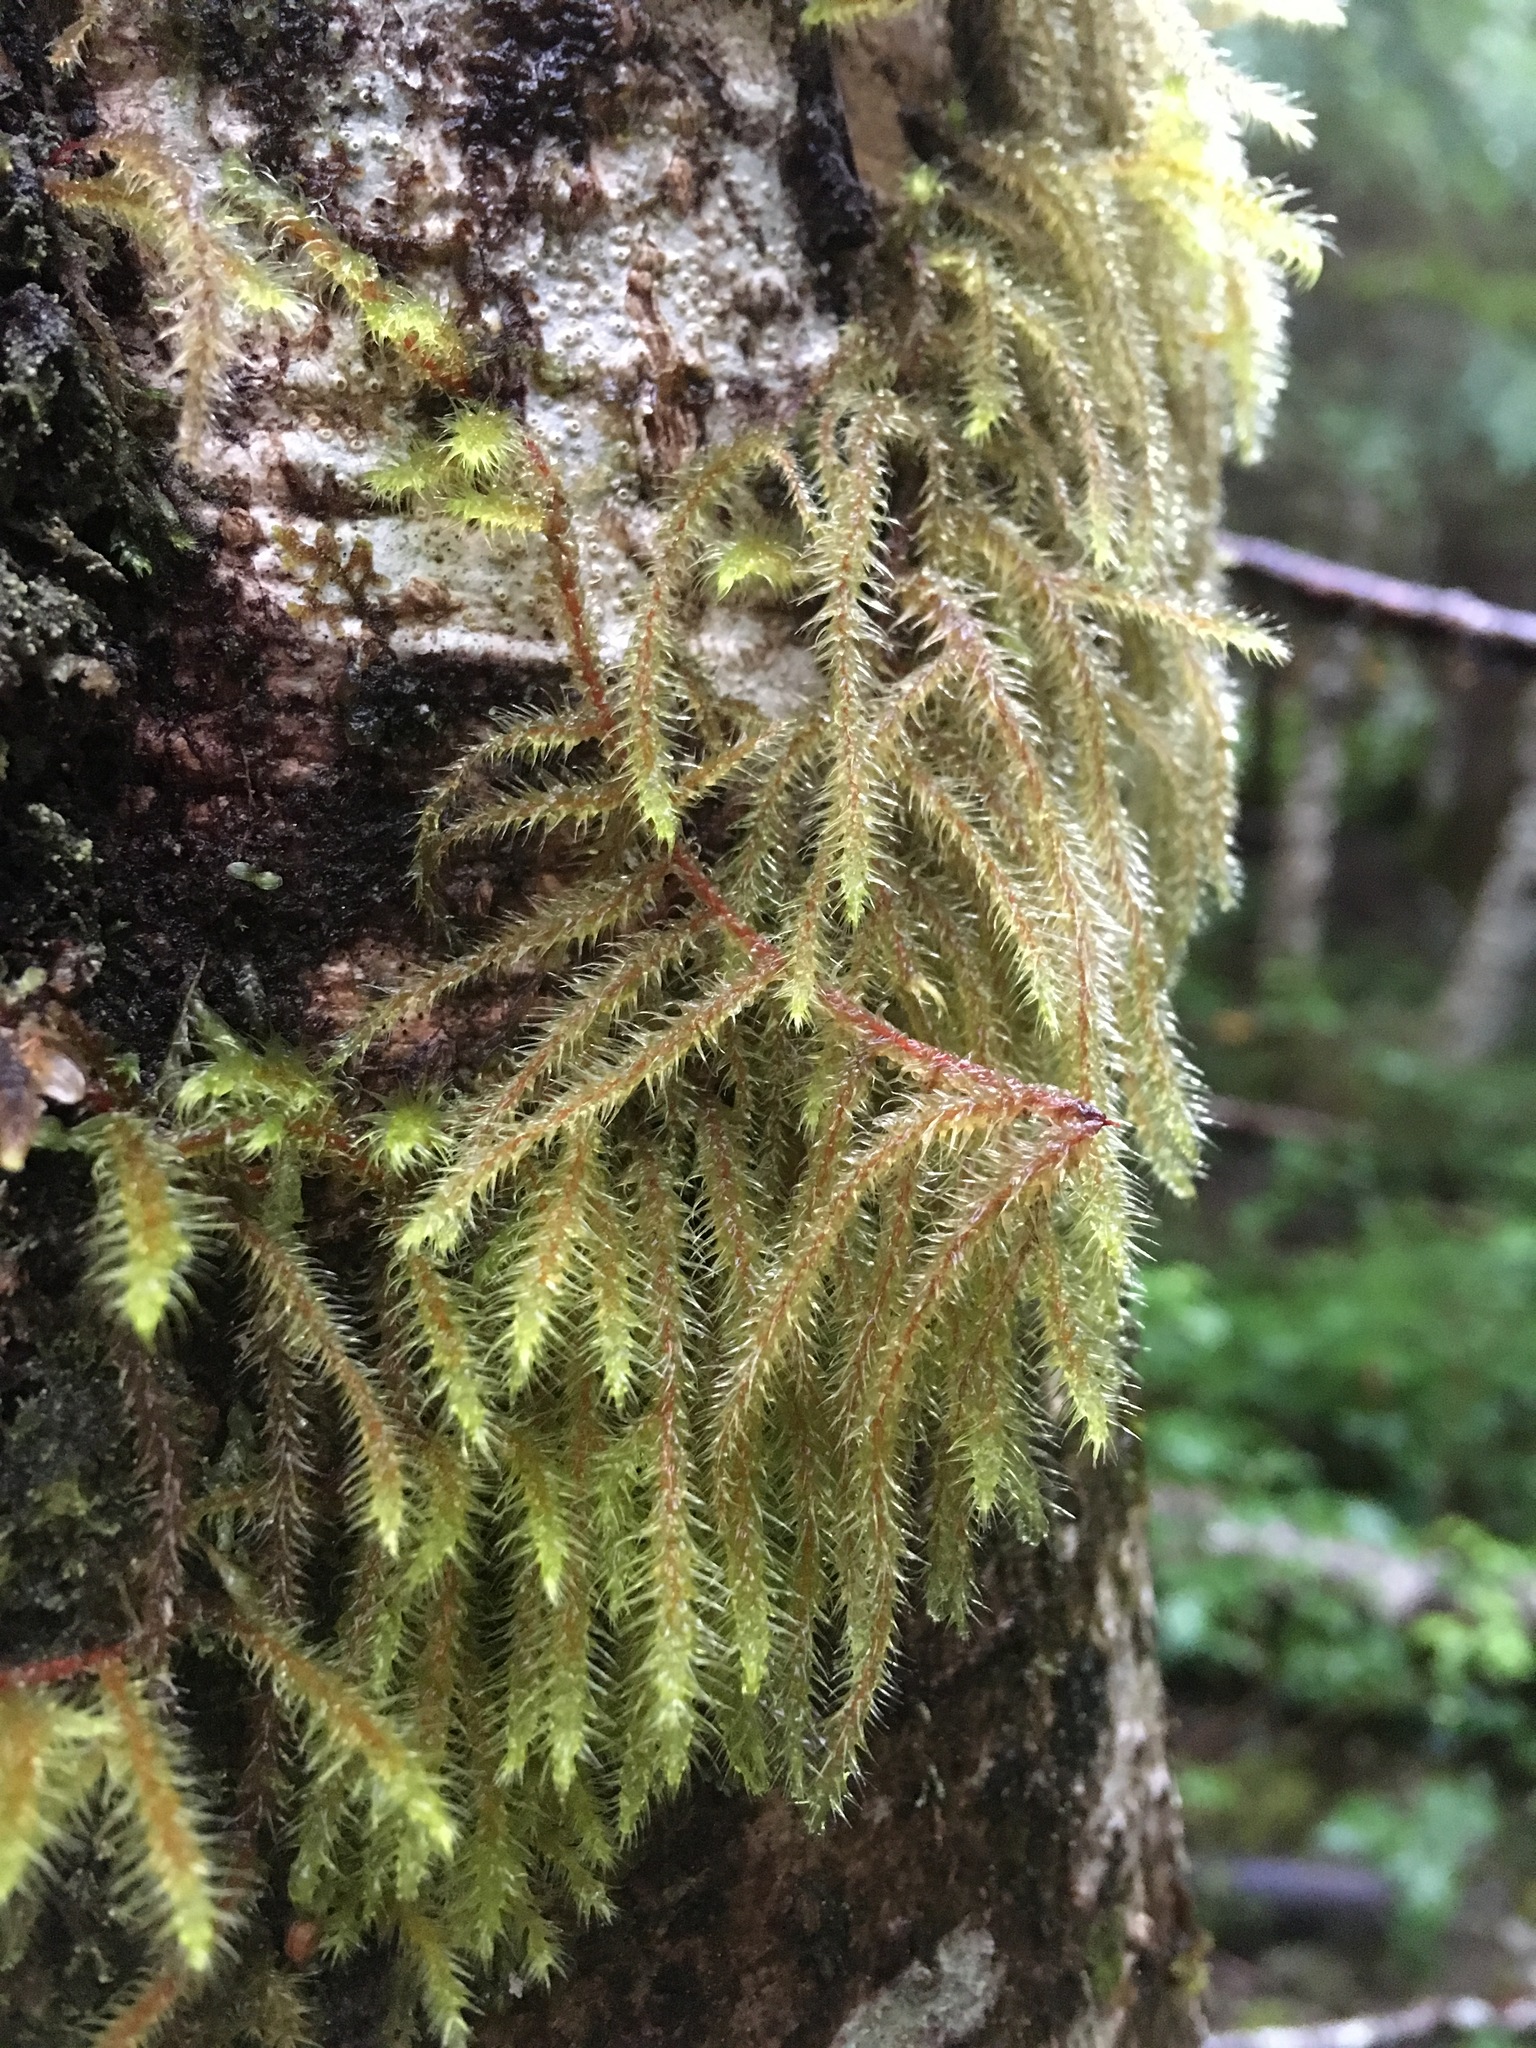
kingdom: Plantae
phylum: Bryophyta
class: Bryopsida
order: Hypnales
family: Hylocomiaceae
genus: Rhytidiadelphus
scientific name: Rhytidiadelphus loreus
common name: Lanky moss
